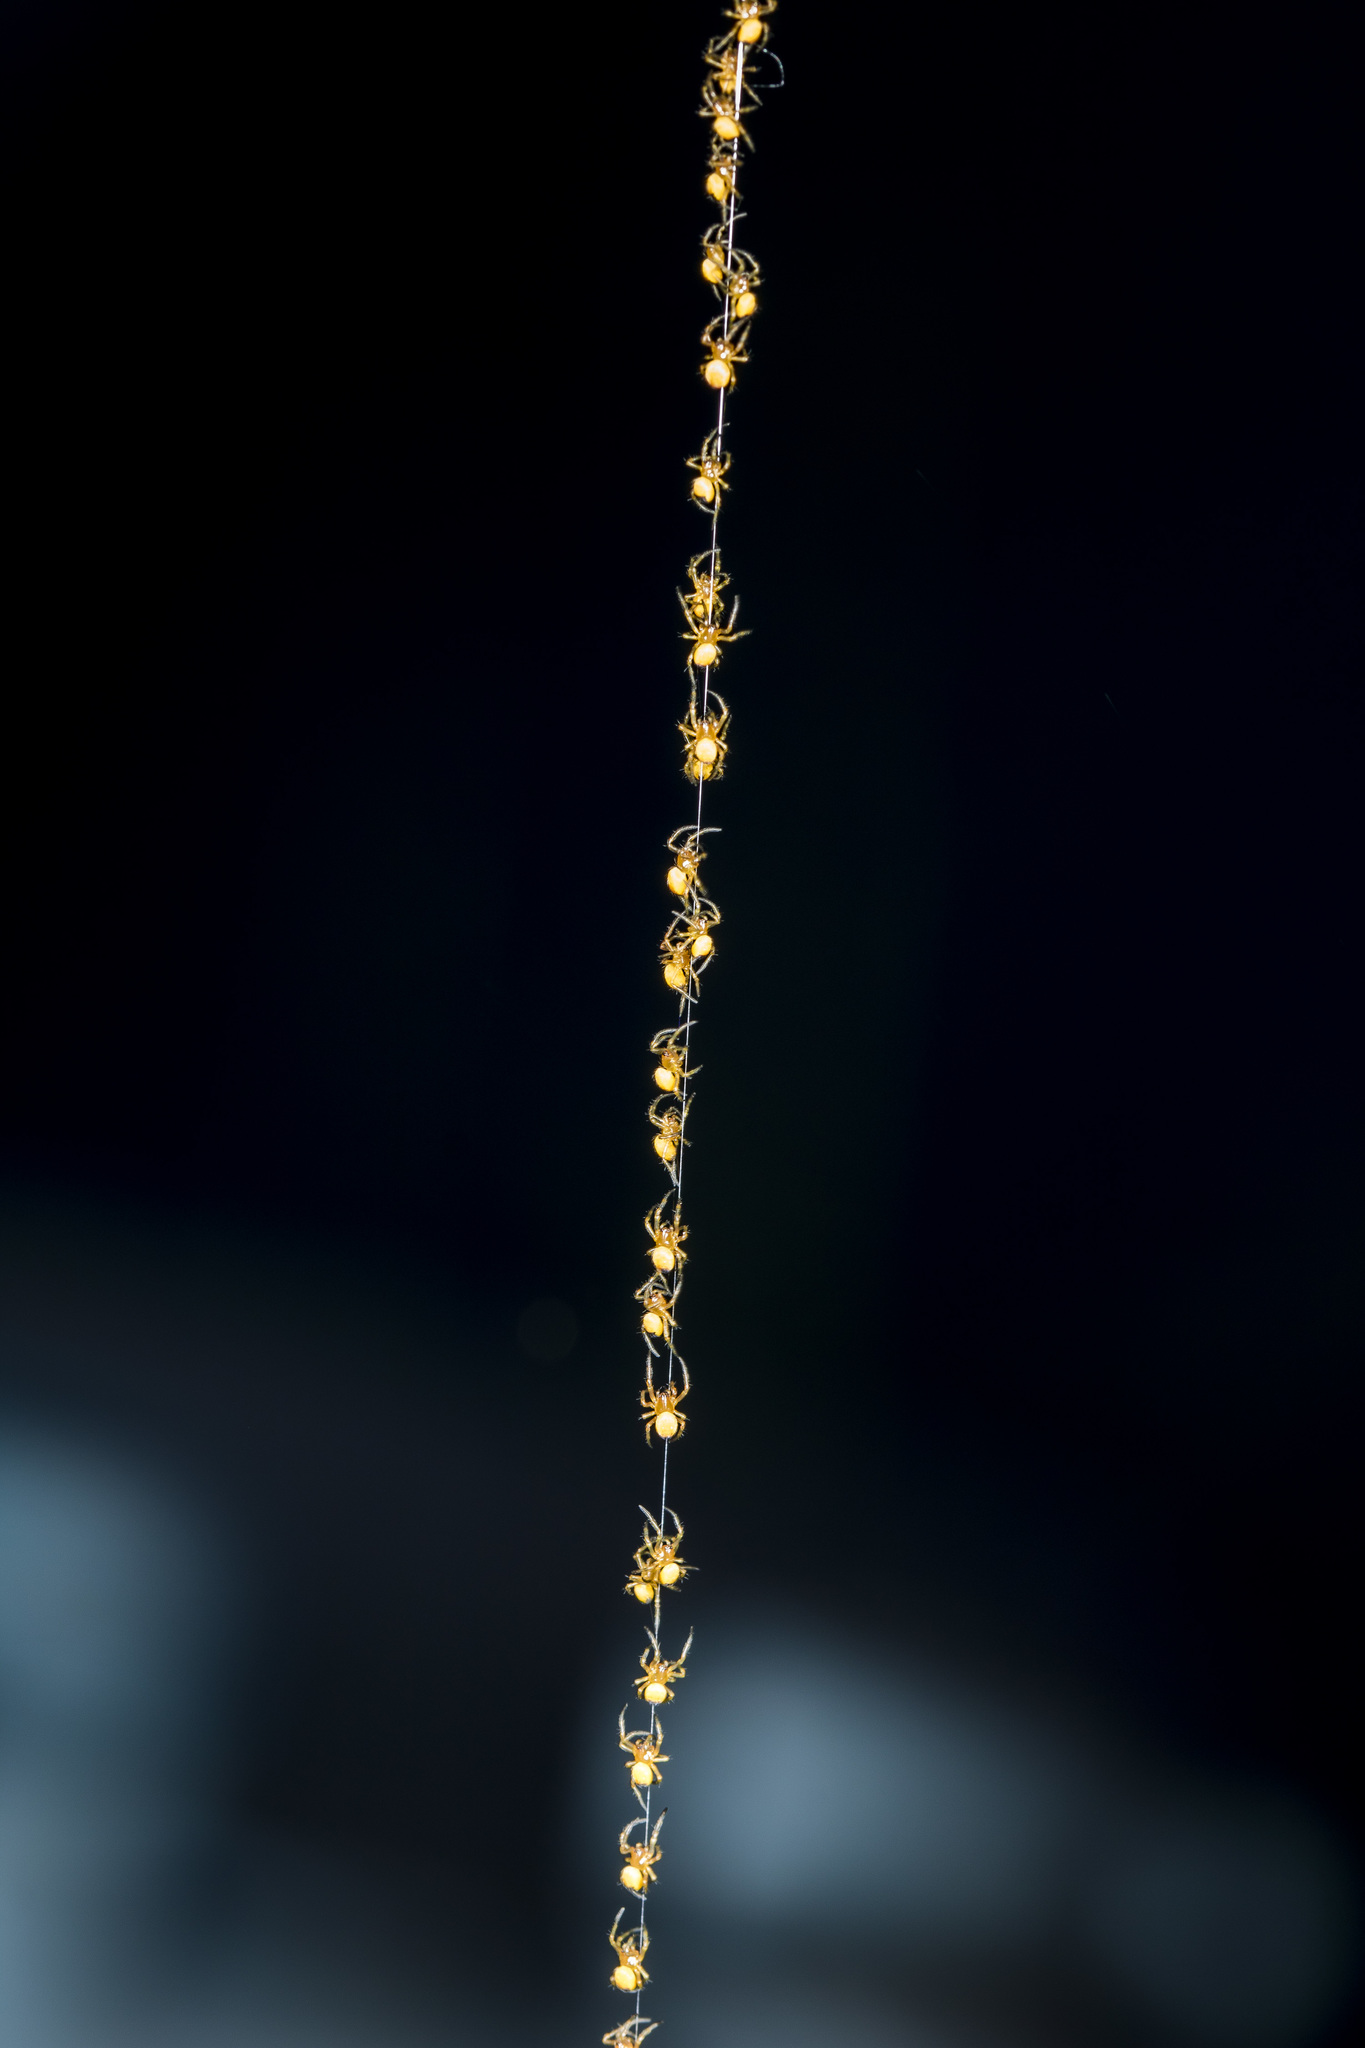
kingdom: Animalia
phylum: Arthropoda
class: Arachnida
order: Araneae
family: Araneidae
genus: Araneus
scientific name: Araneus diadematus
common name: Cross orbweaver
